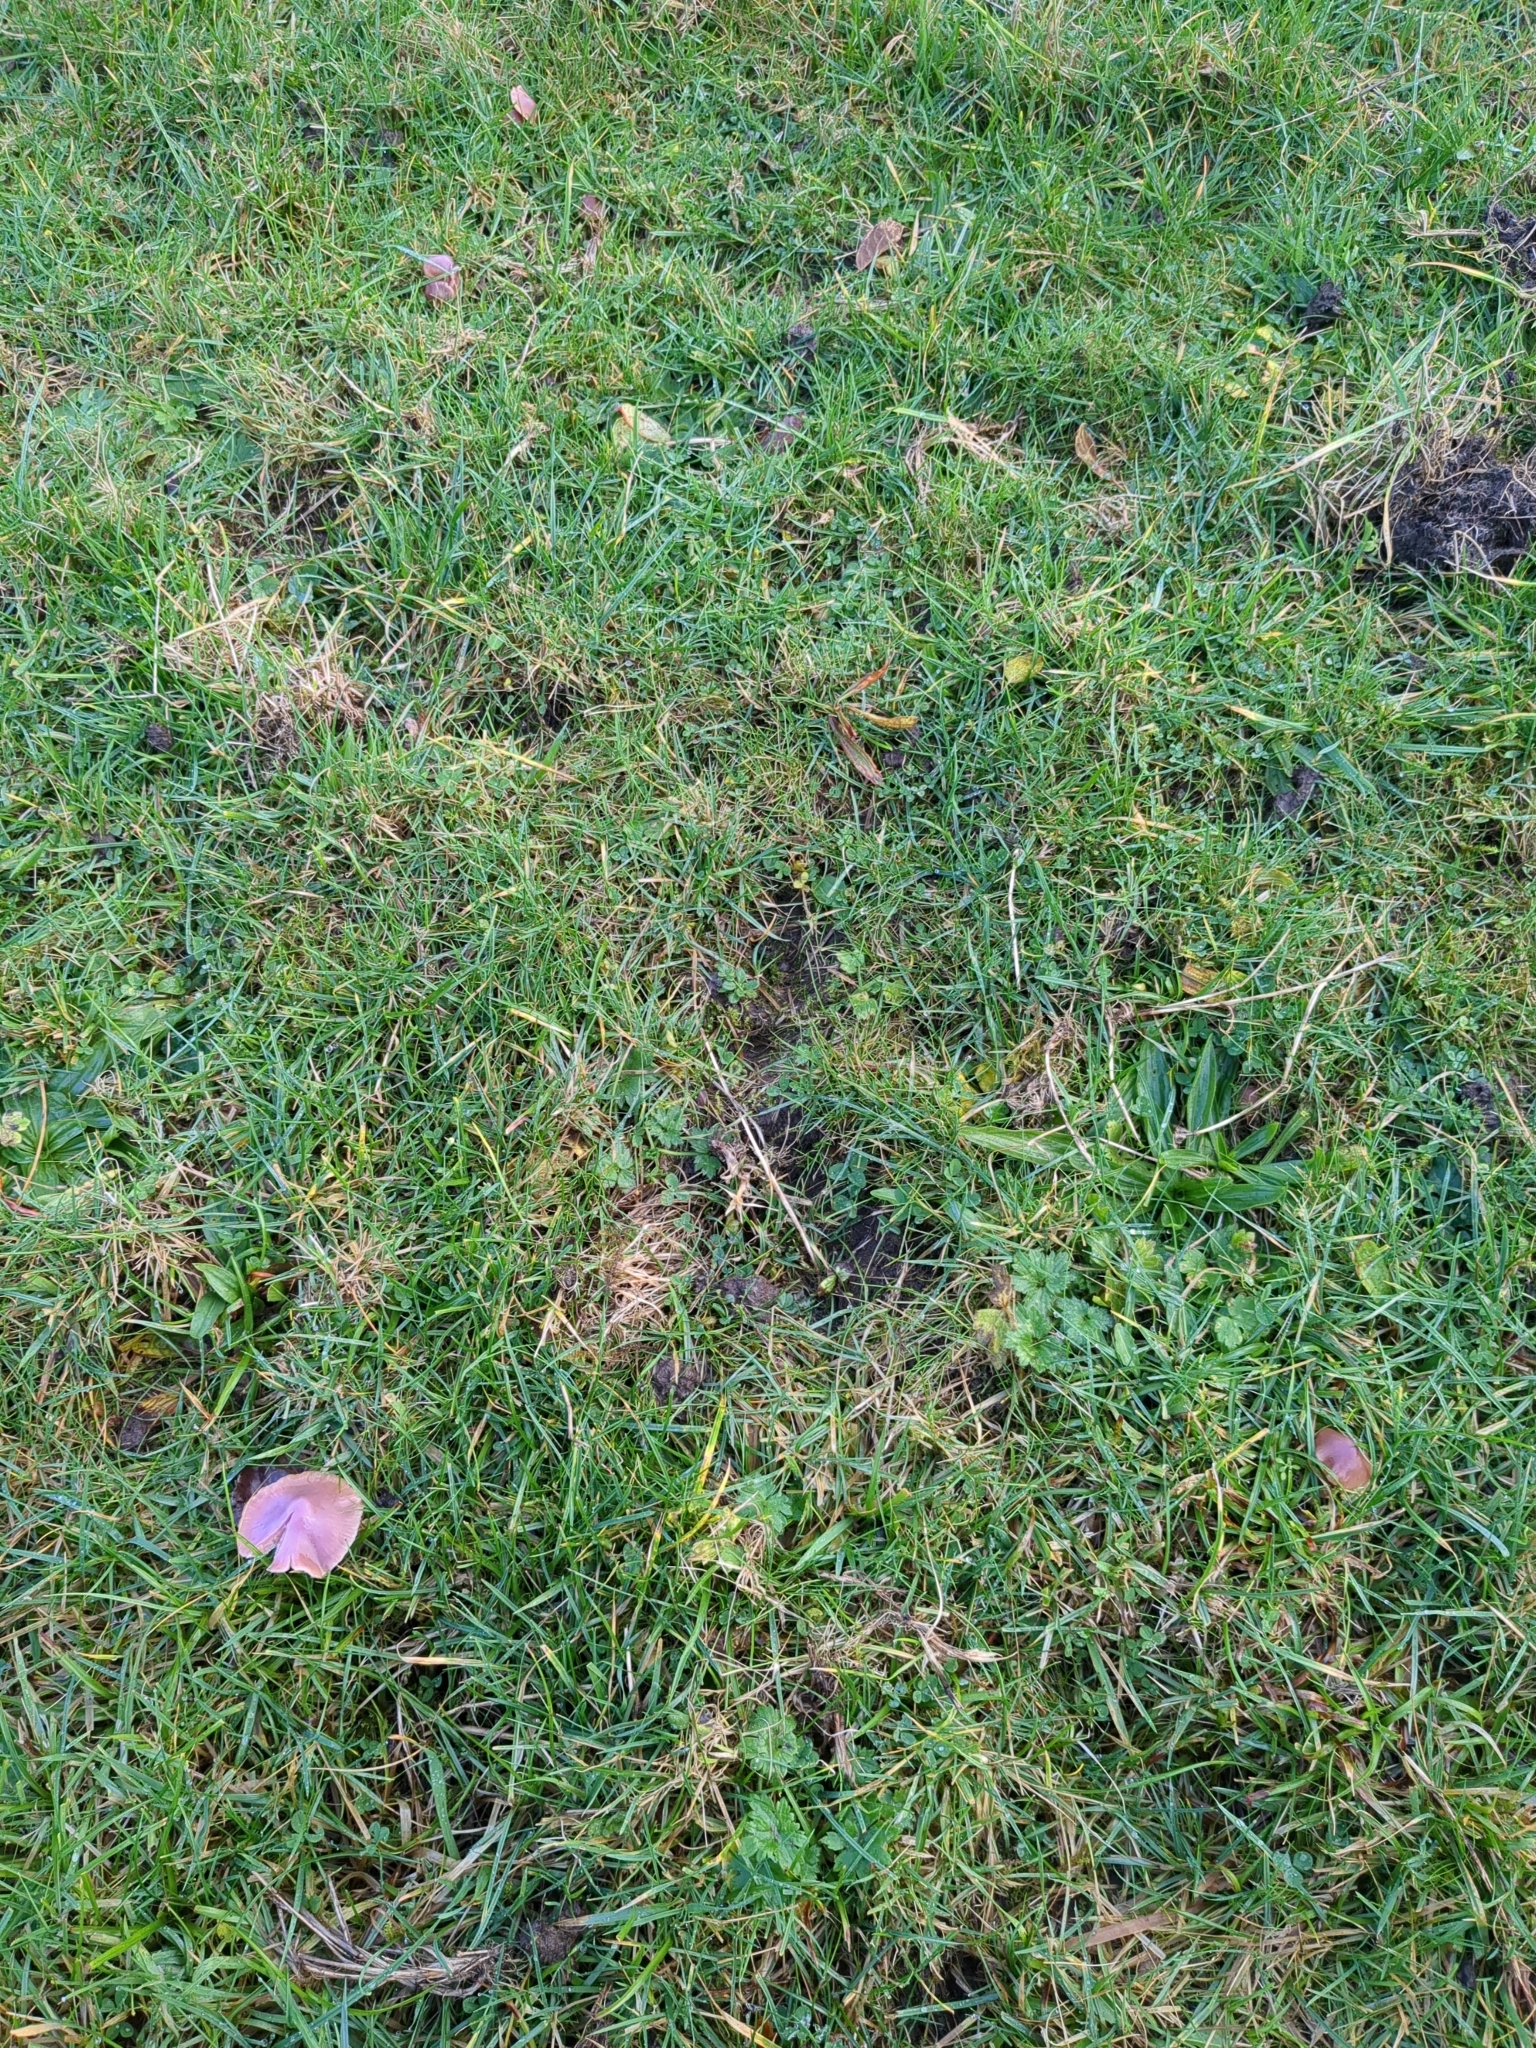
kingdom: Fungi
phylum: Basidiomycota
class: Agaricomycetes
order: Agaricales
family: Hygrophoraceae
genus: Gliophorus
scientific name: Gliophorus reginae
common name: Jubilee waxcap
